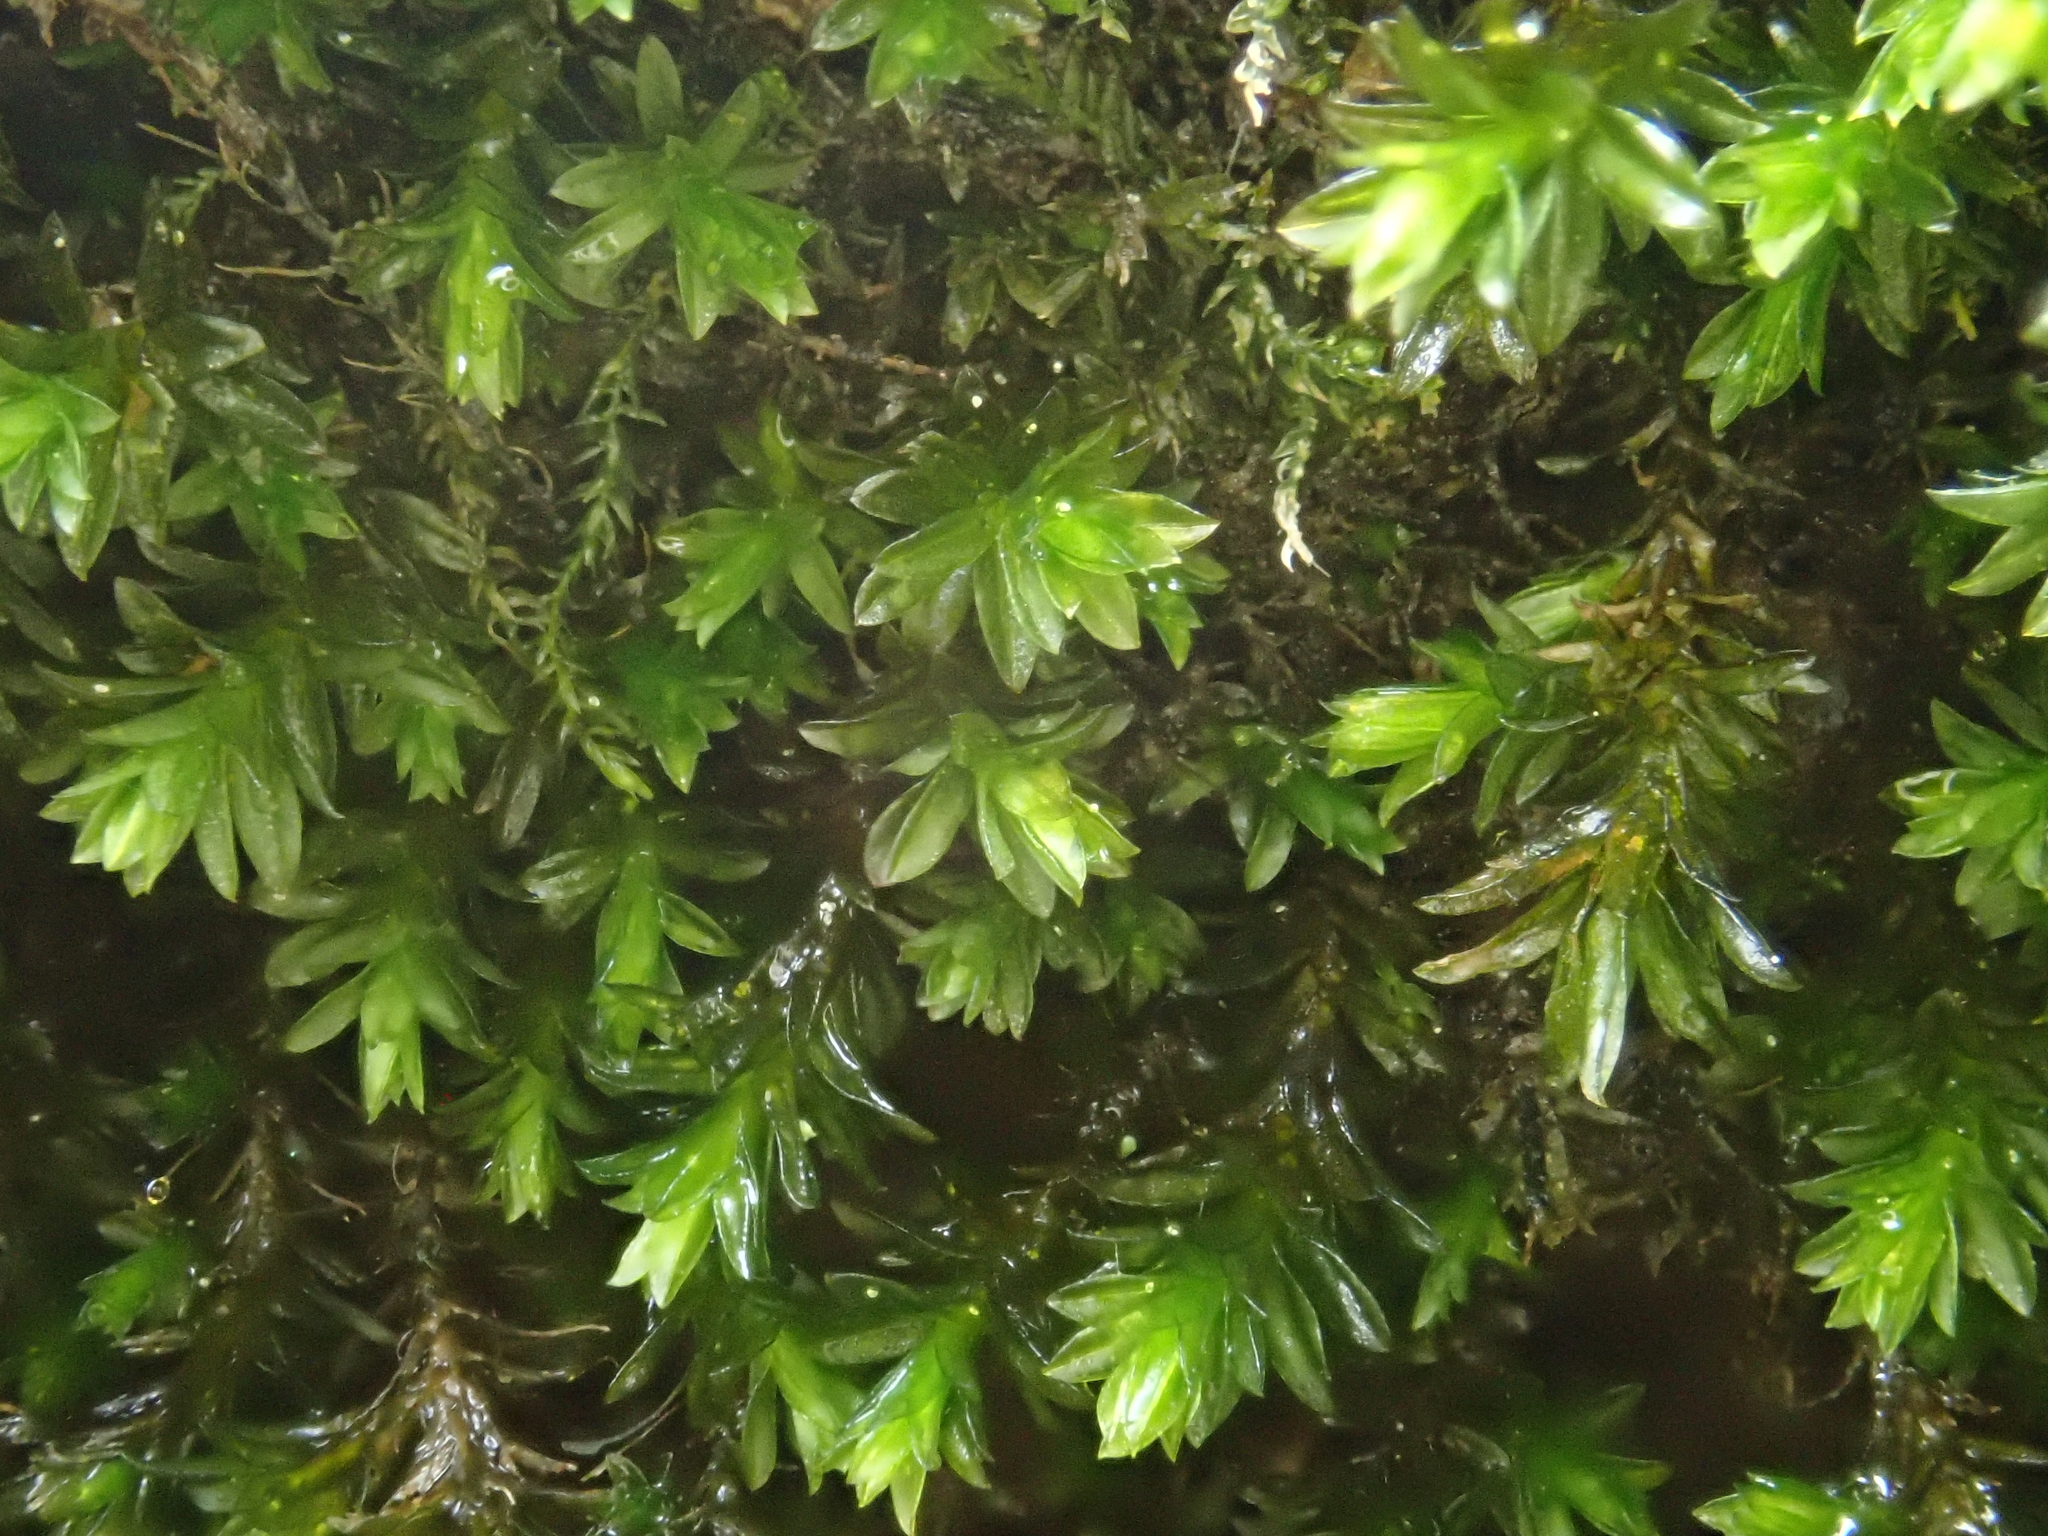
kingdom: Plantae
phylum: Bryophyta
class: Bryopsida
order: Pottiales
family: Pottiaceae
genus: Cinclidotus
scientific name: Cinclidotus riparius
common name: Fountain lattice-moss
